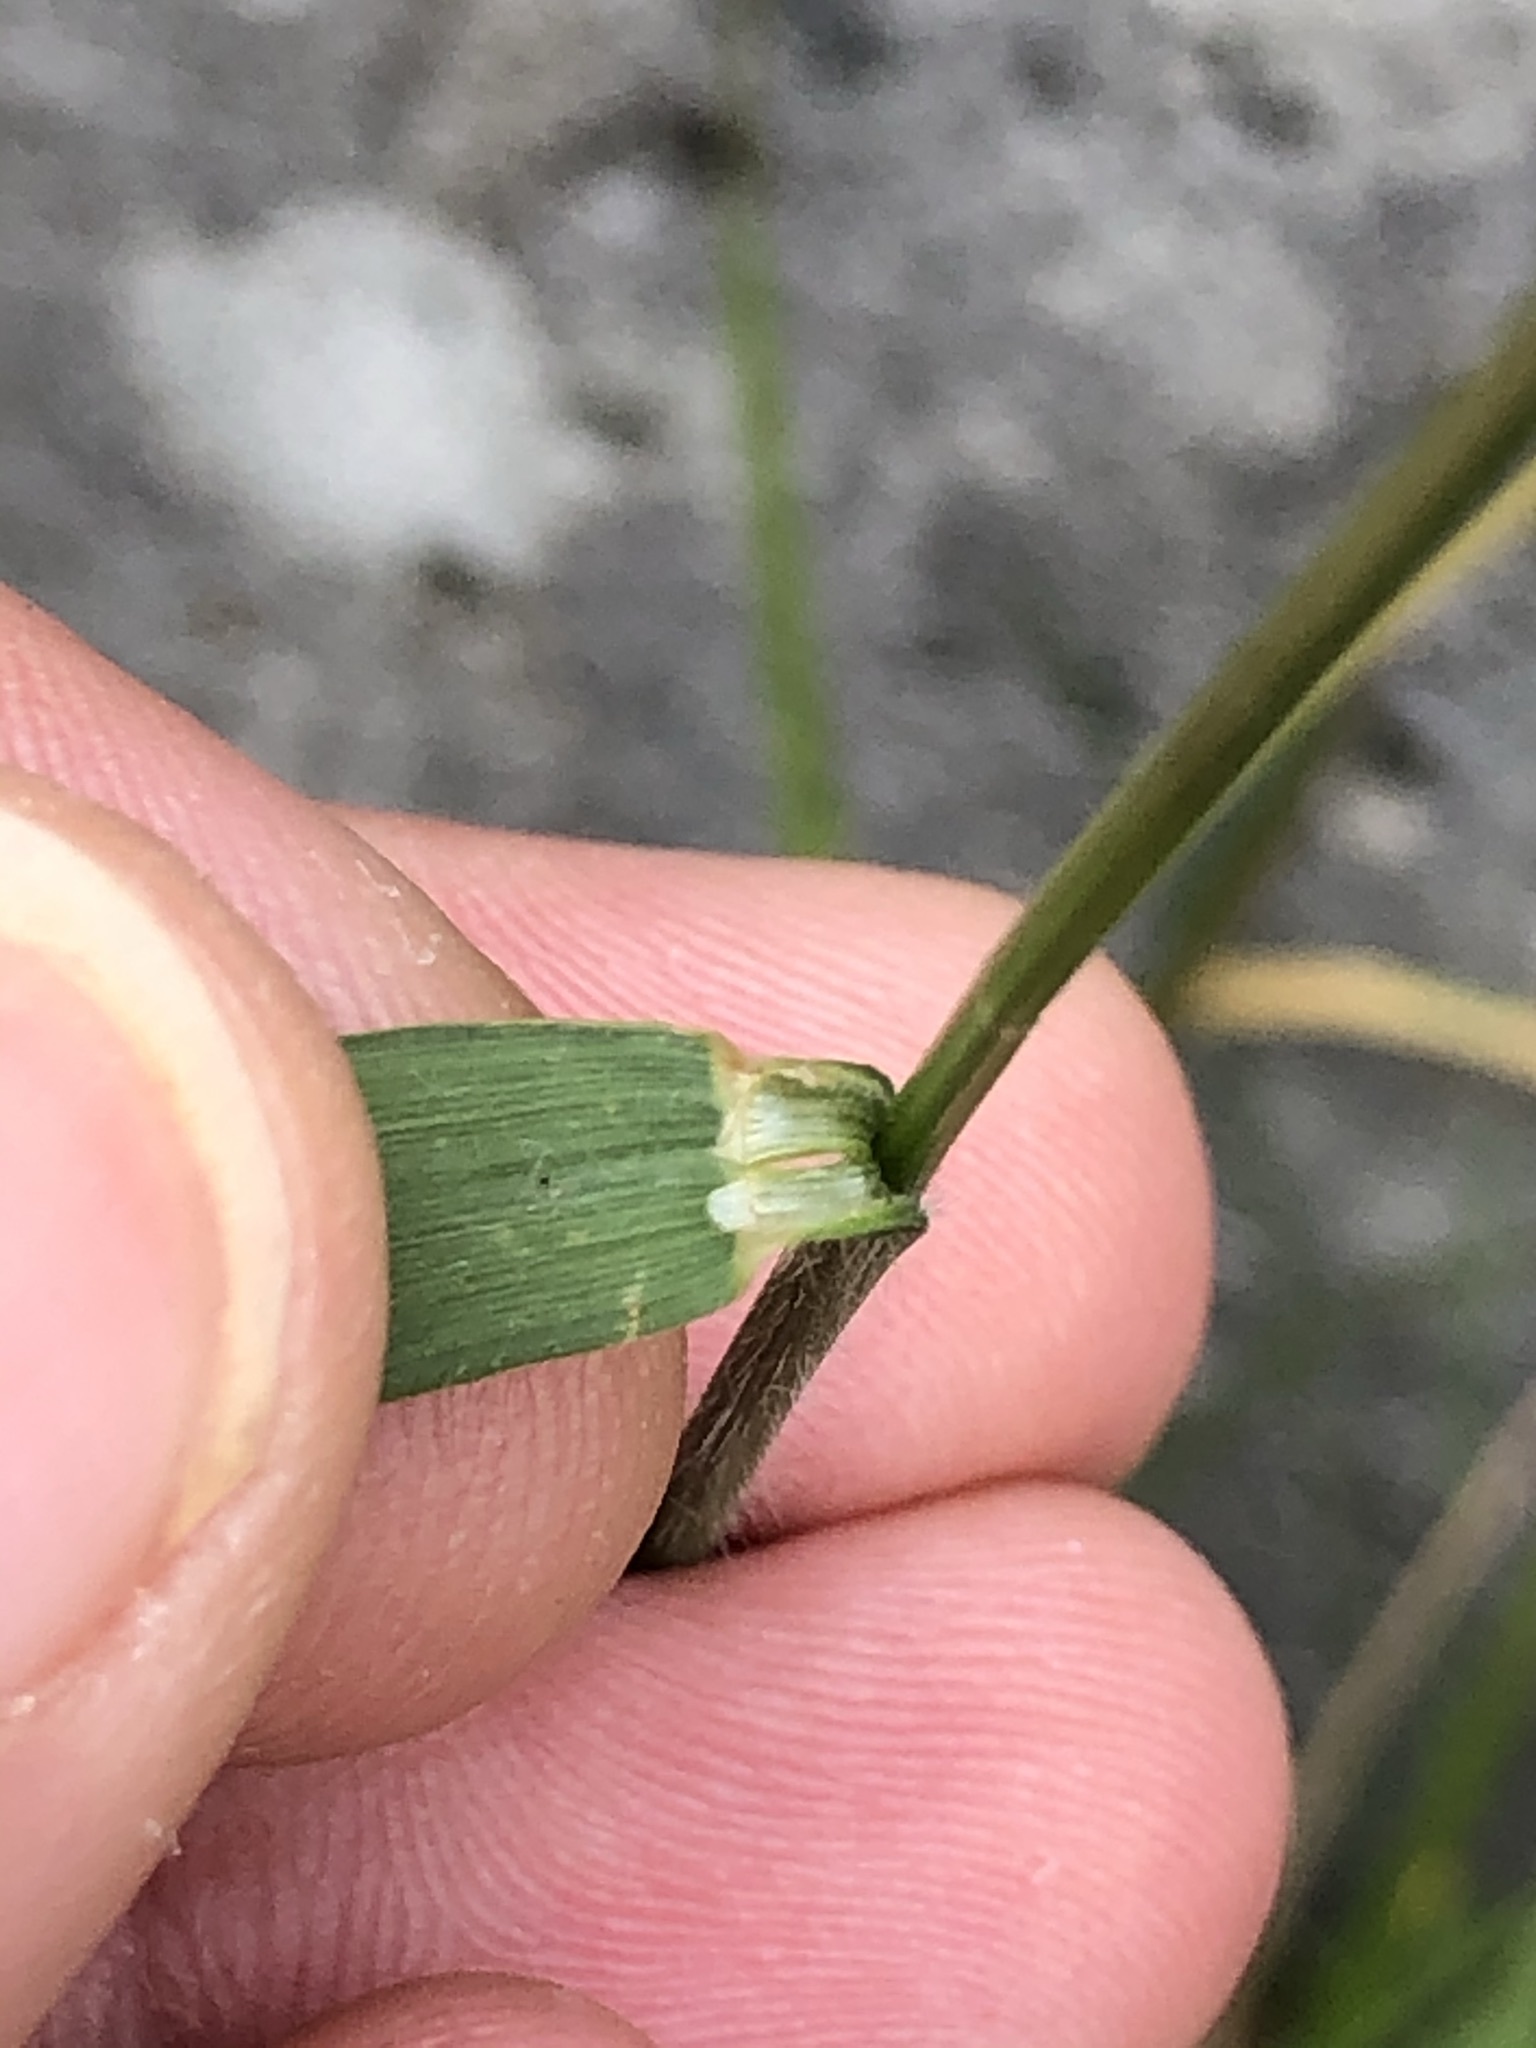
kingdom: Plantae
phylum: Tracheophyta
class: Liliopsida
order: Poales
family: Poaceae
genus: Trisetum
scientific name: Trisetum flavescens
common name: Yellow oat-grass
